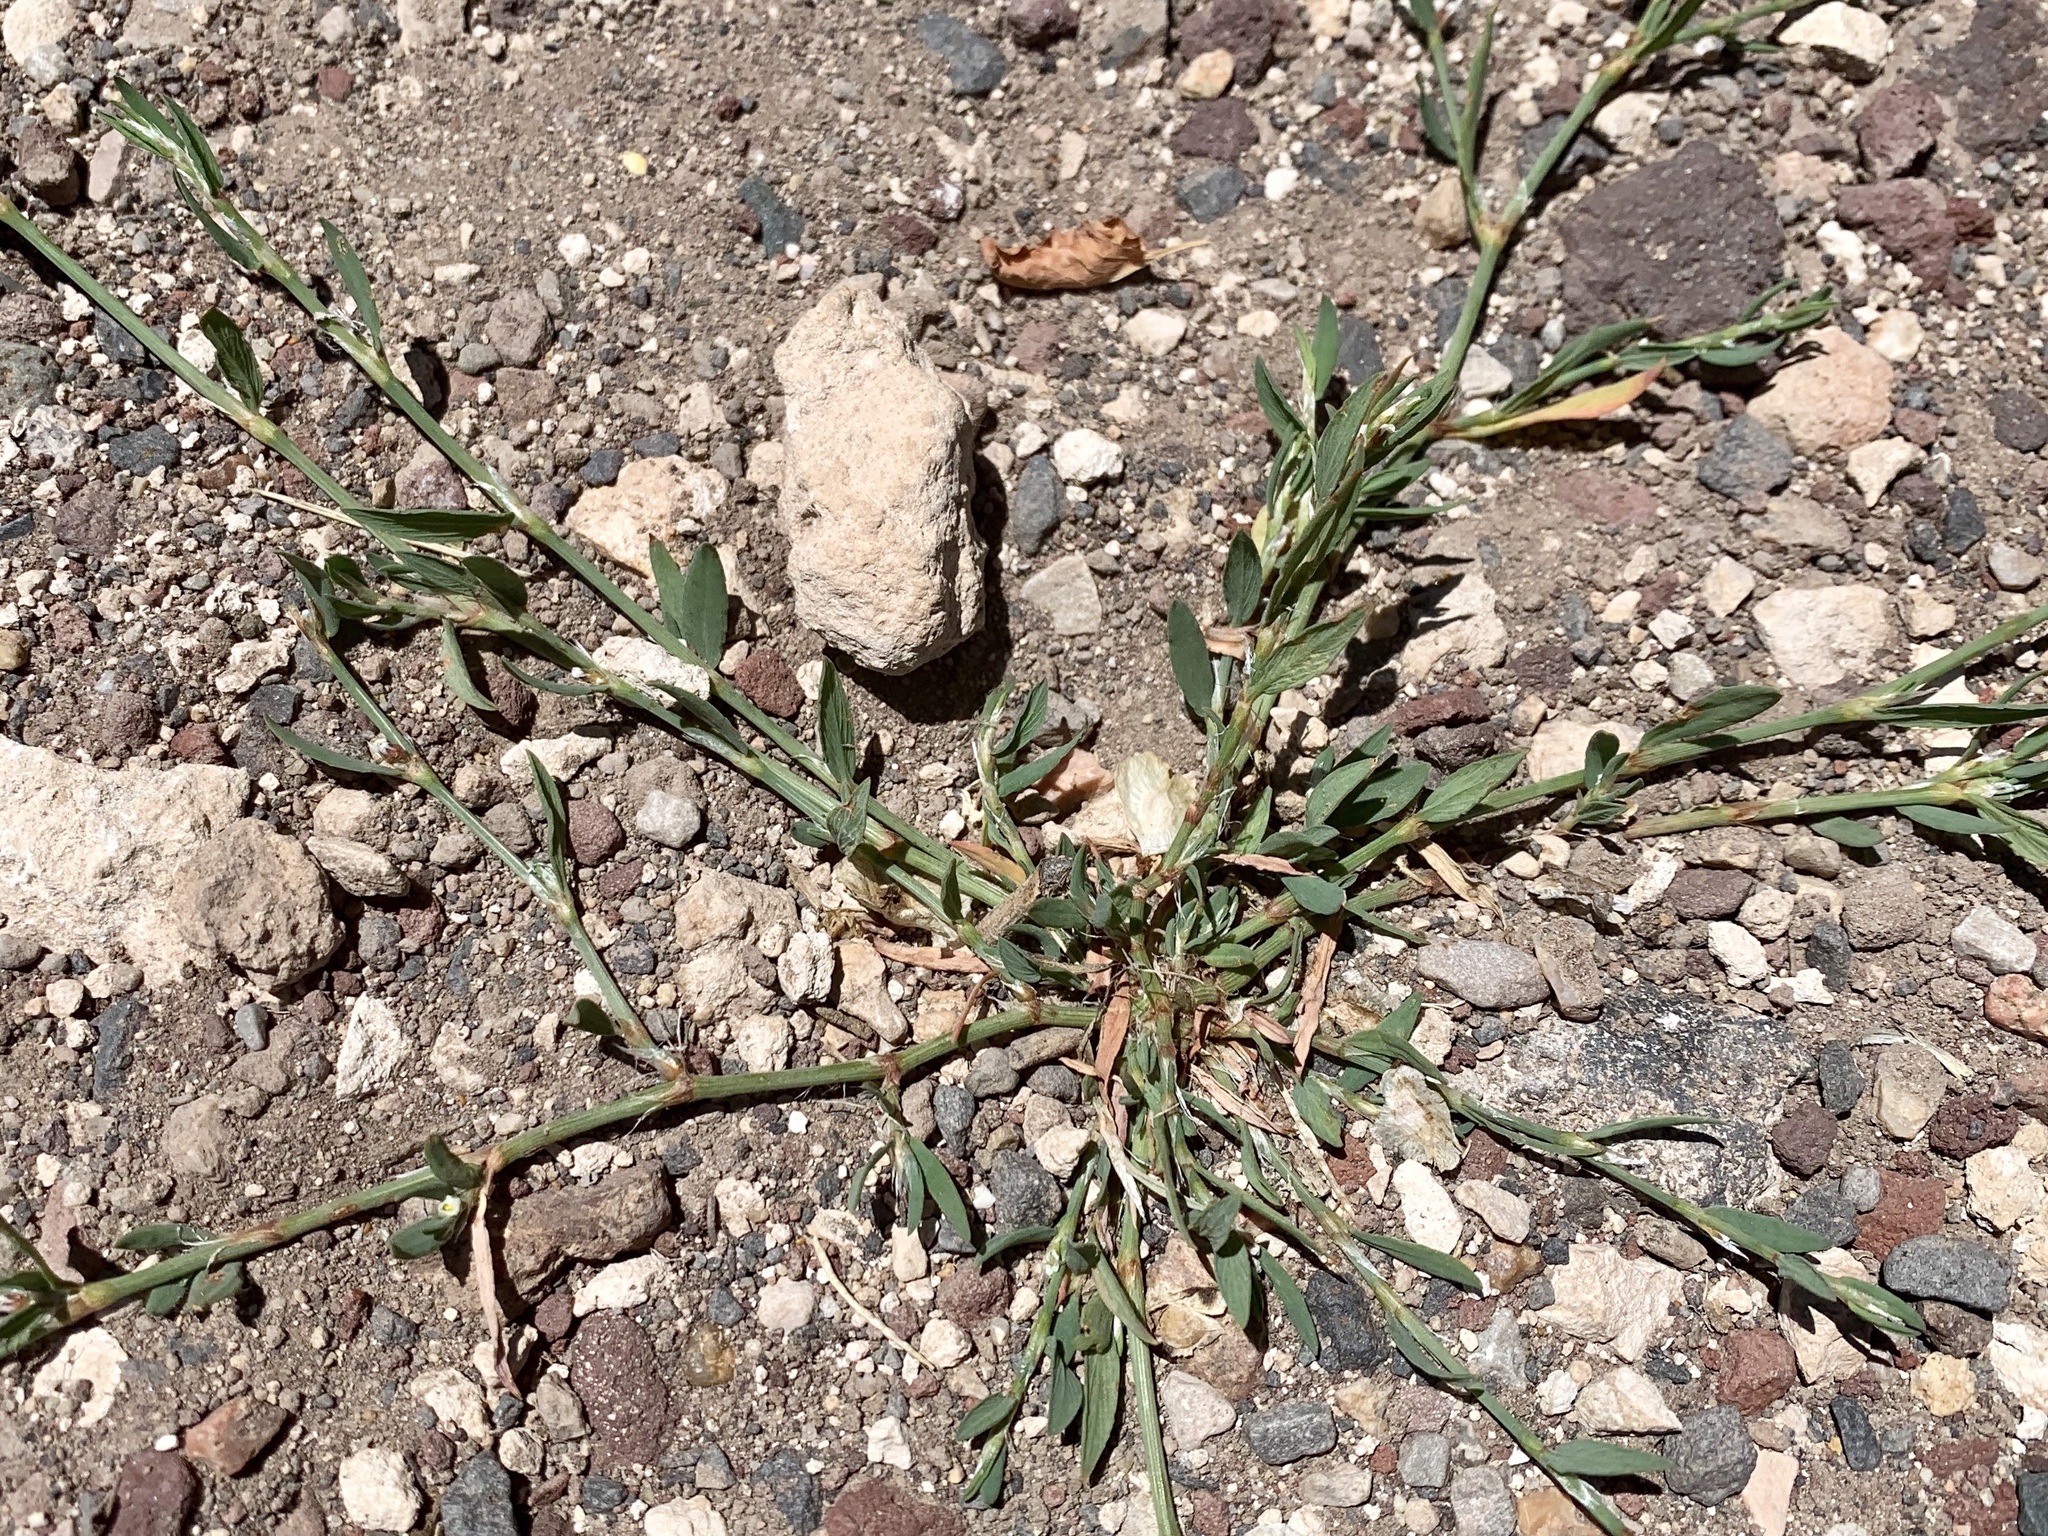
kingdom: Plantae
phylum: Tracheophyta
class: Magnoliopsida
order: Caryophyllales
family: Polygonaceae
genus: Polygonum
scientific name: Polygonum aviculare
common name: Prostrate knotweed
